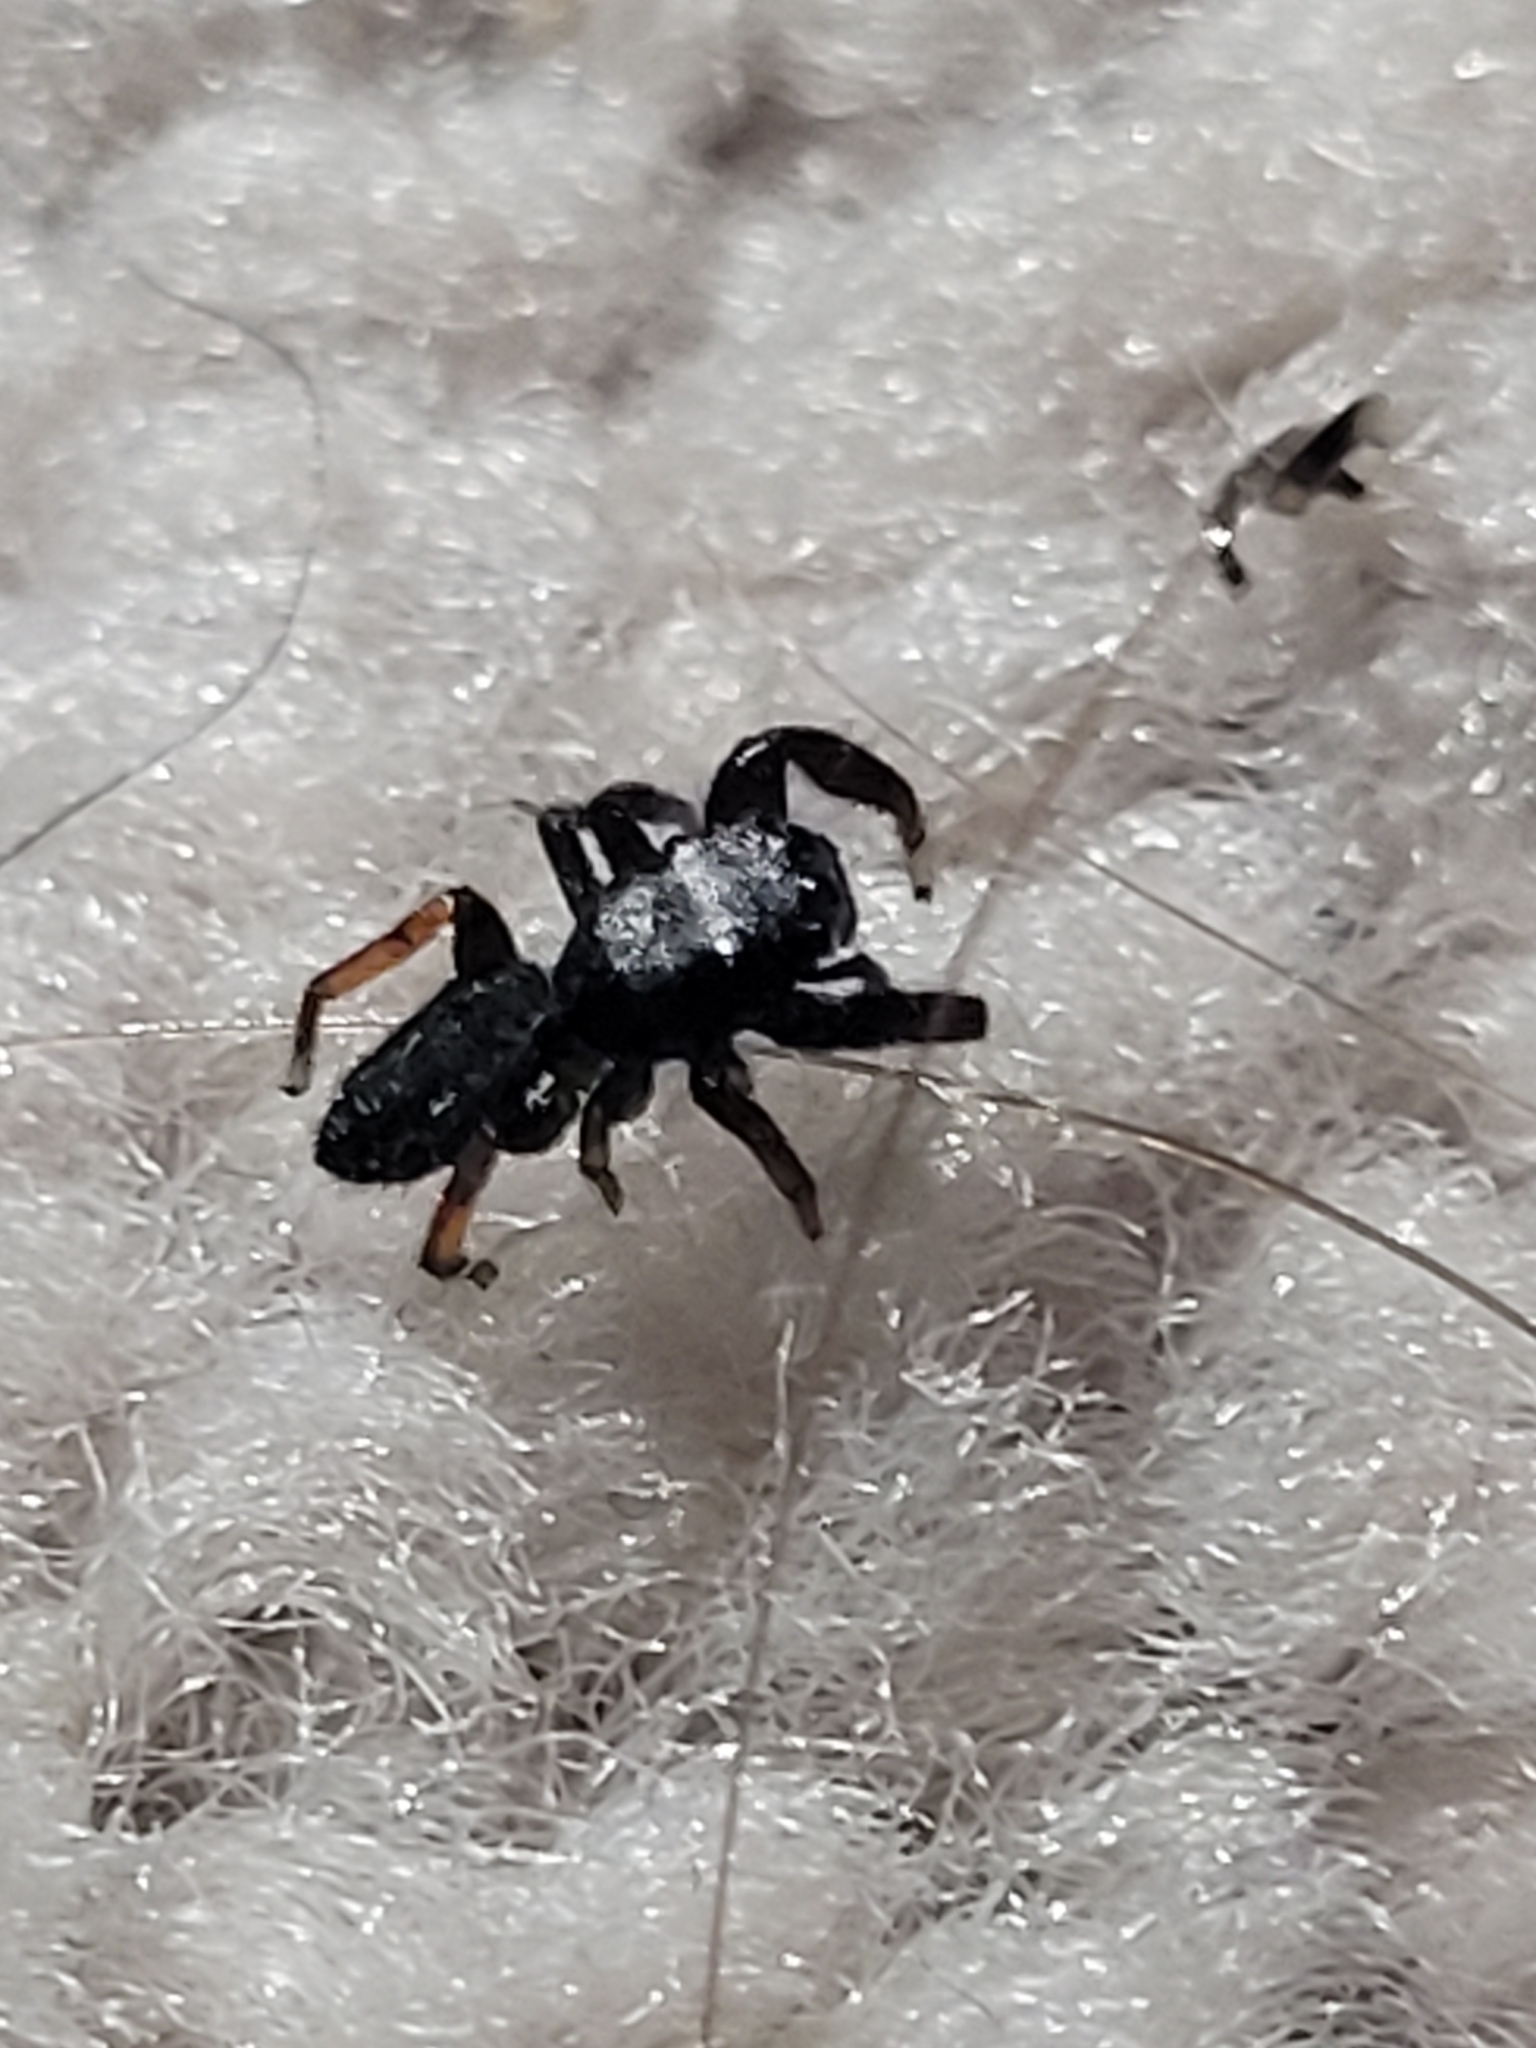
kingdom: Animalia
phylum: Arthropoda
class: Arachnida
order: Araneae
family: Salticidae
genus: Metacyrba
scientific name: Metacyrba taeniola
